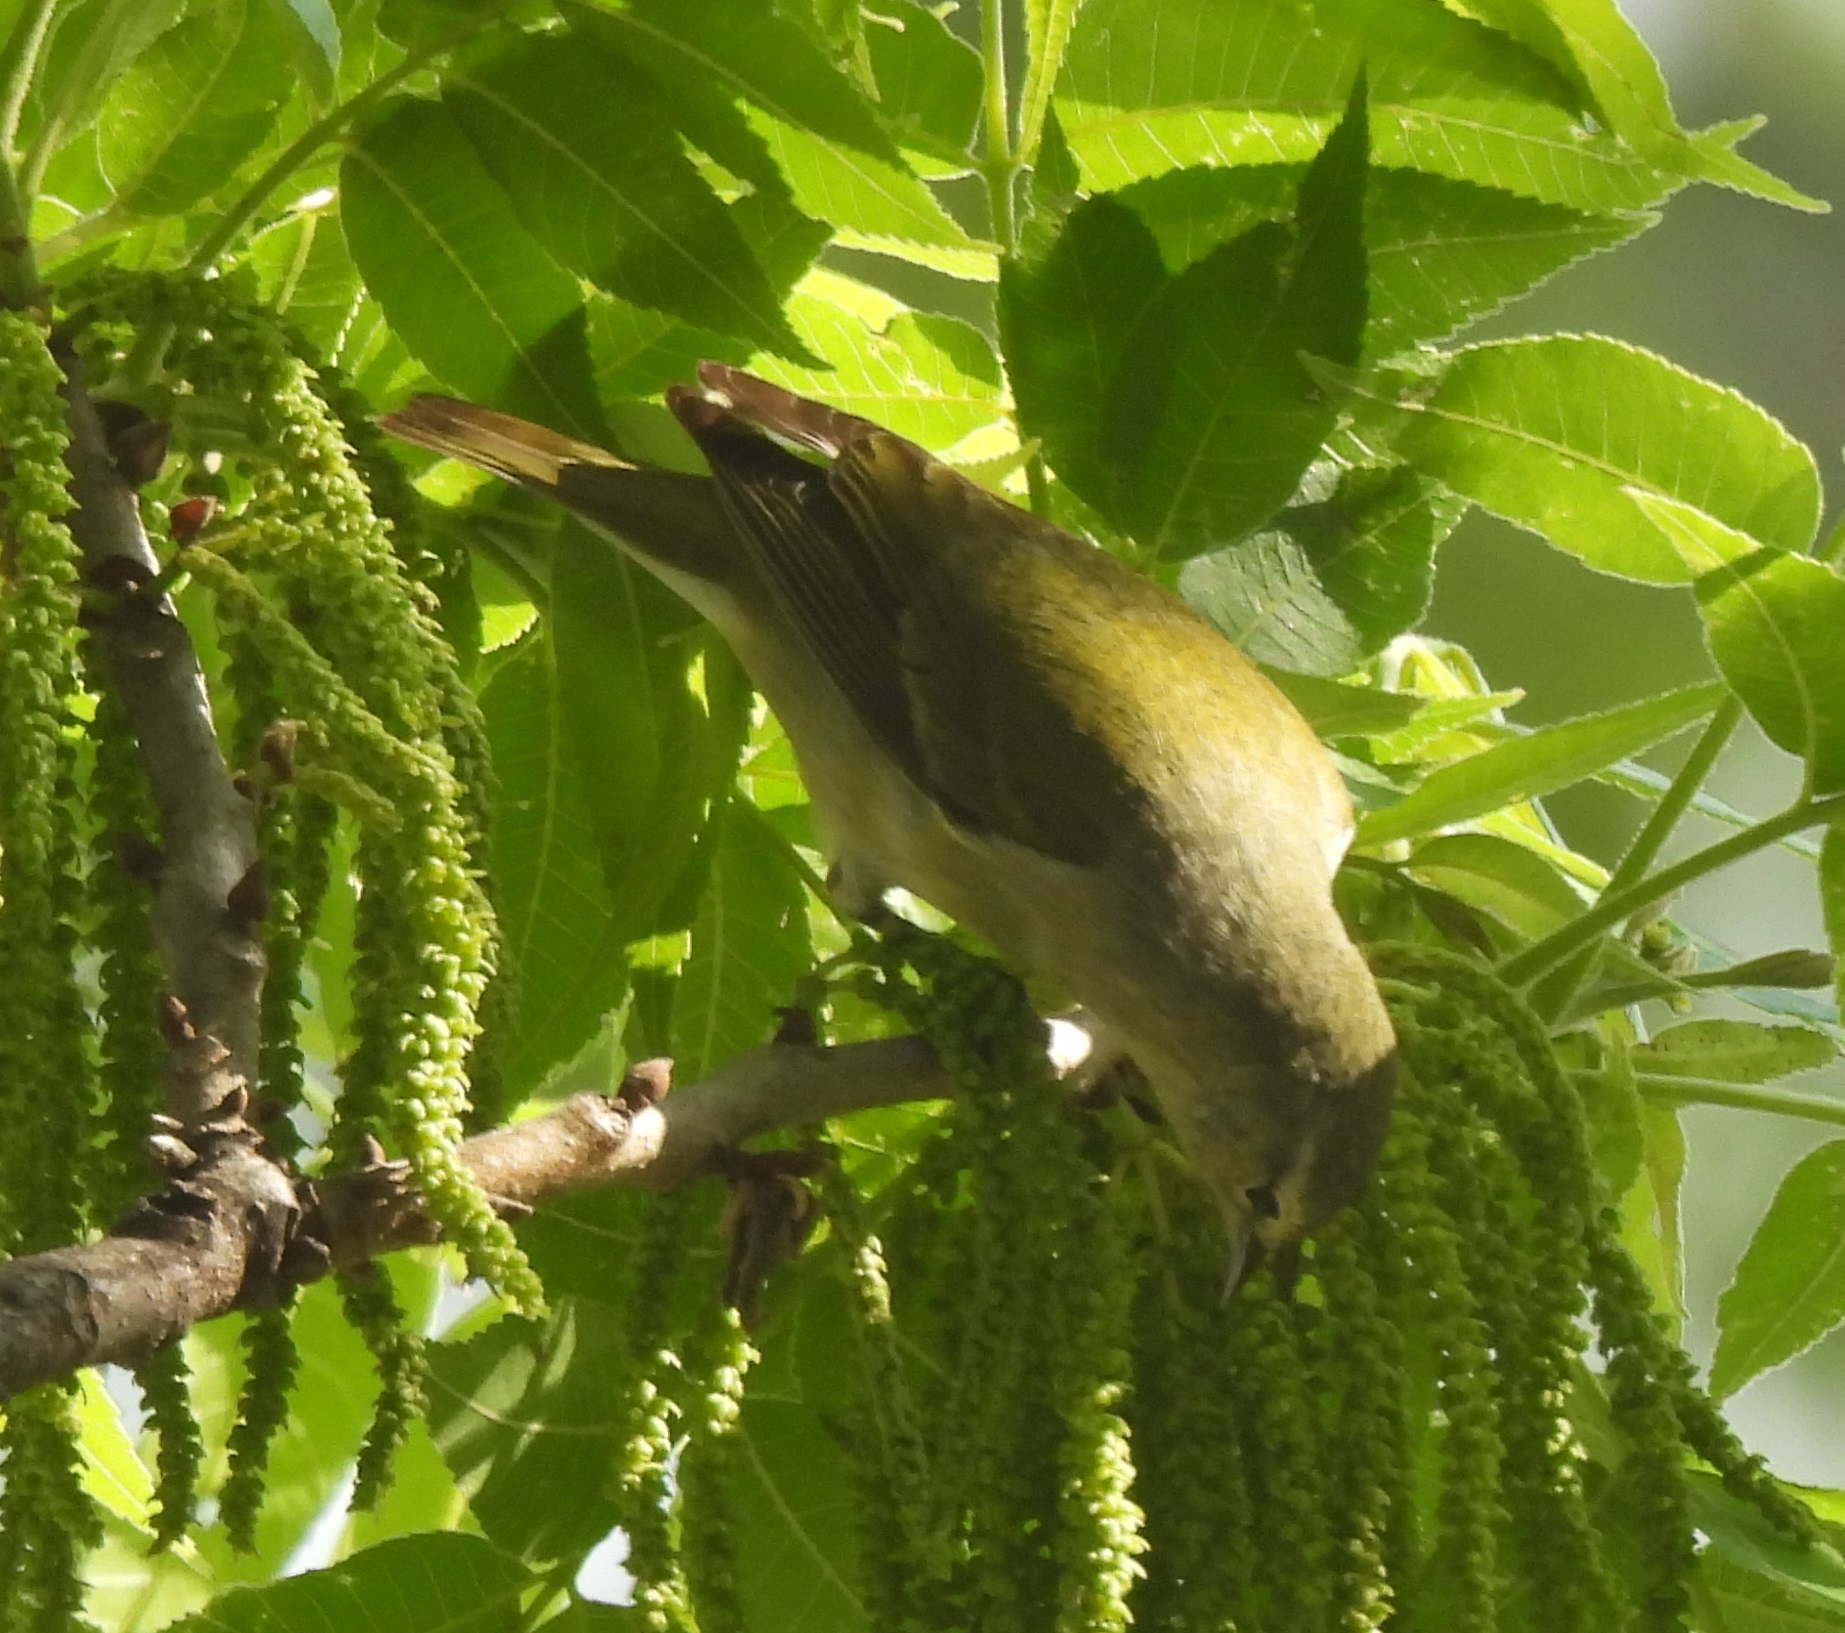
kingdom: Animalia
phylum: Chordata
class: Aves
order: Passeriformes
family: Parulidae
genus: Leiothlypis
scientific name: Leiothlypis peregrina
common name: Tennessee warbler
